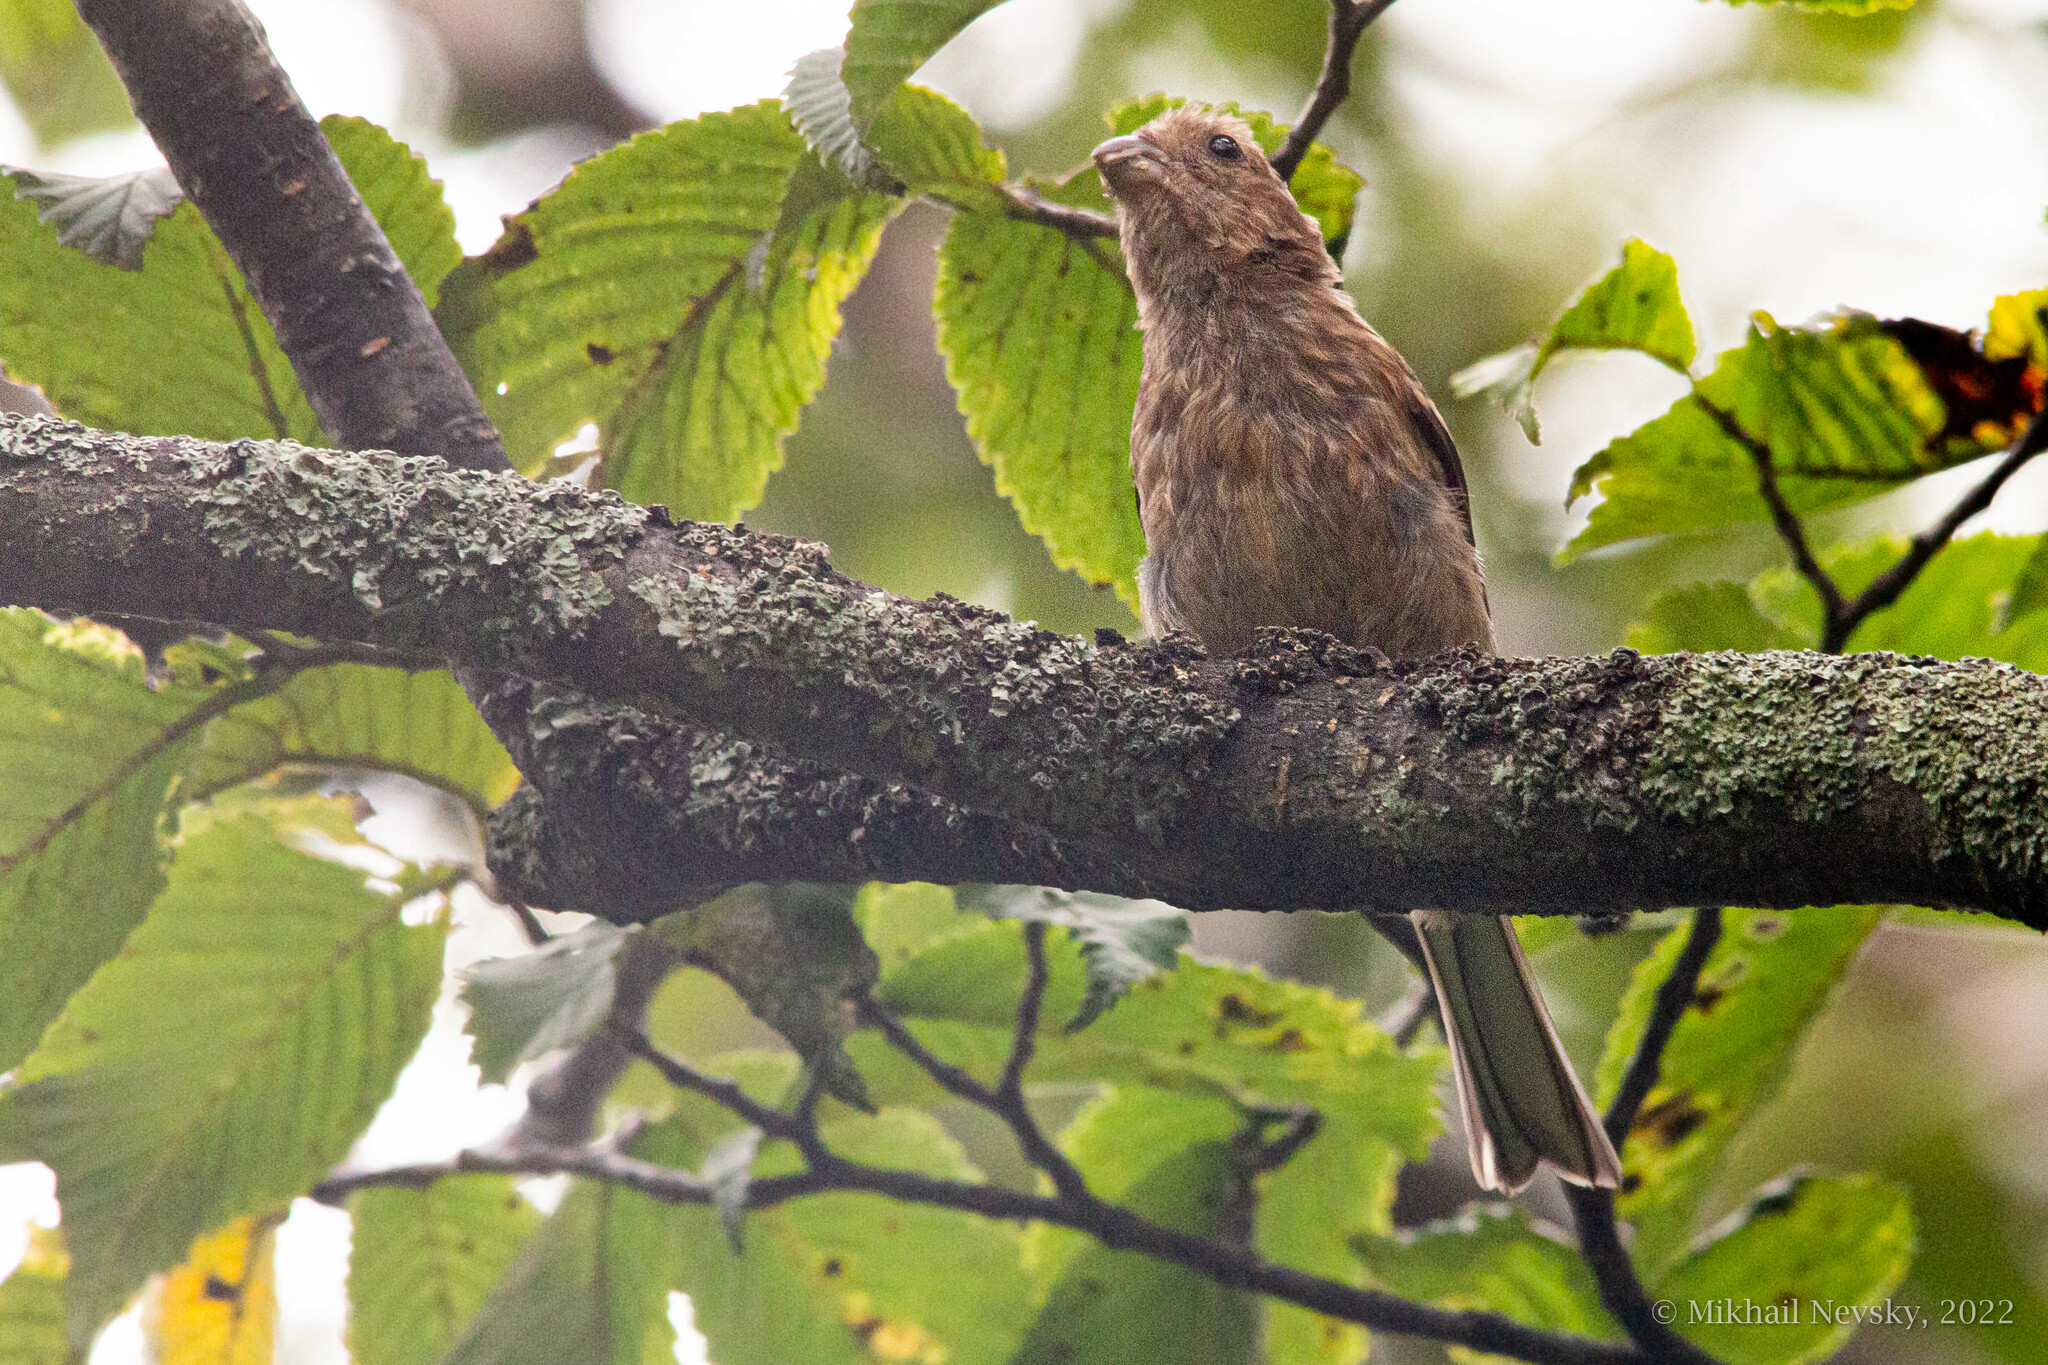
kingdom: Animalia
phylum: Chordata
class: Aves
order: Passeriformes
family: Fringillidae
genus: Carpodacus
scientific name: Carpodacus sibiricus
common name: Long-tailed rosefinch
